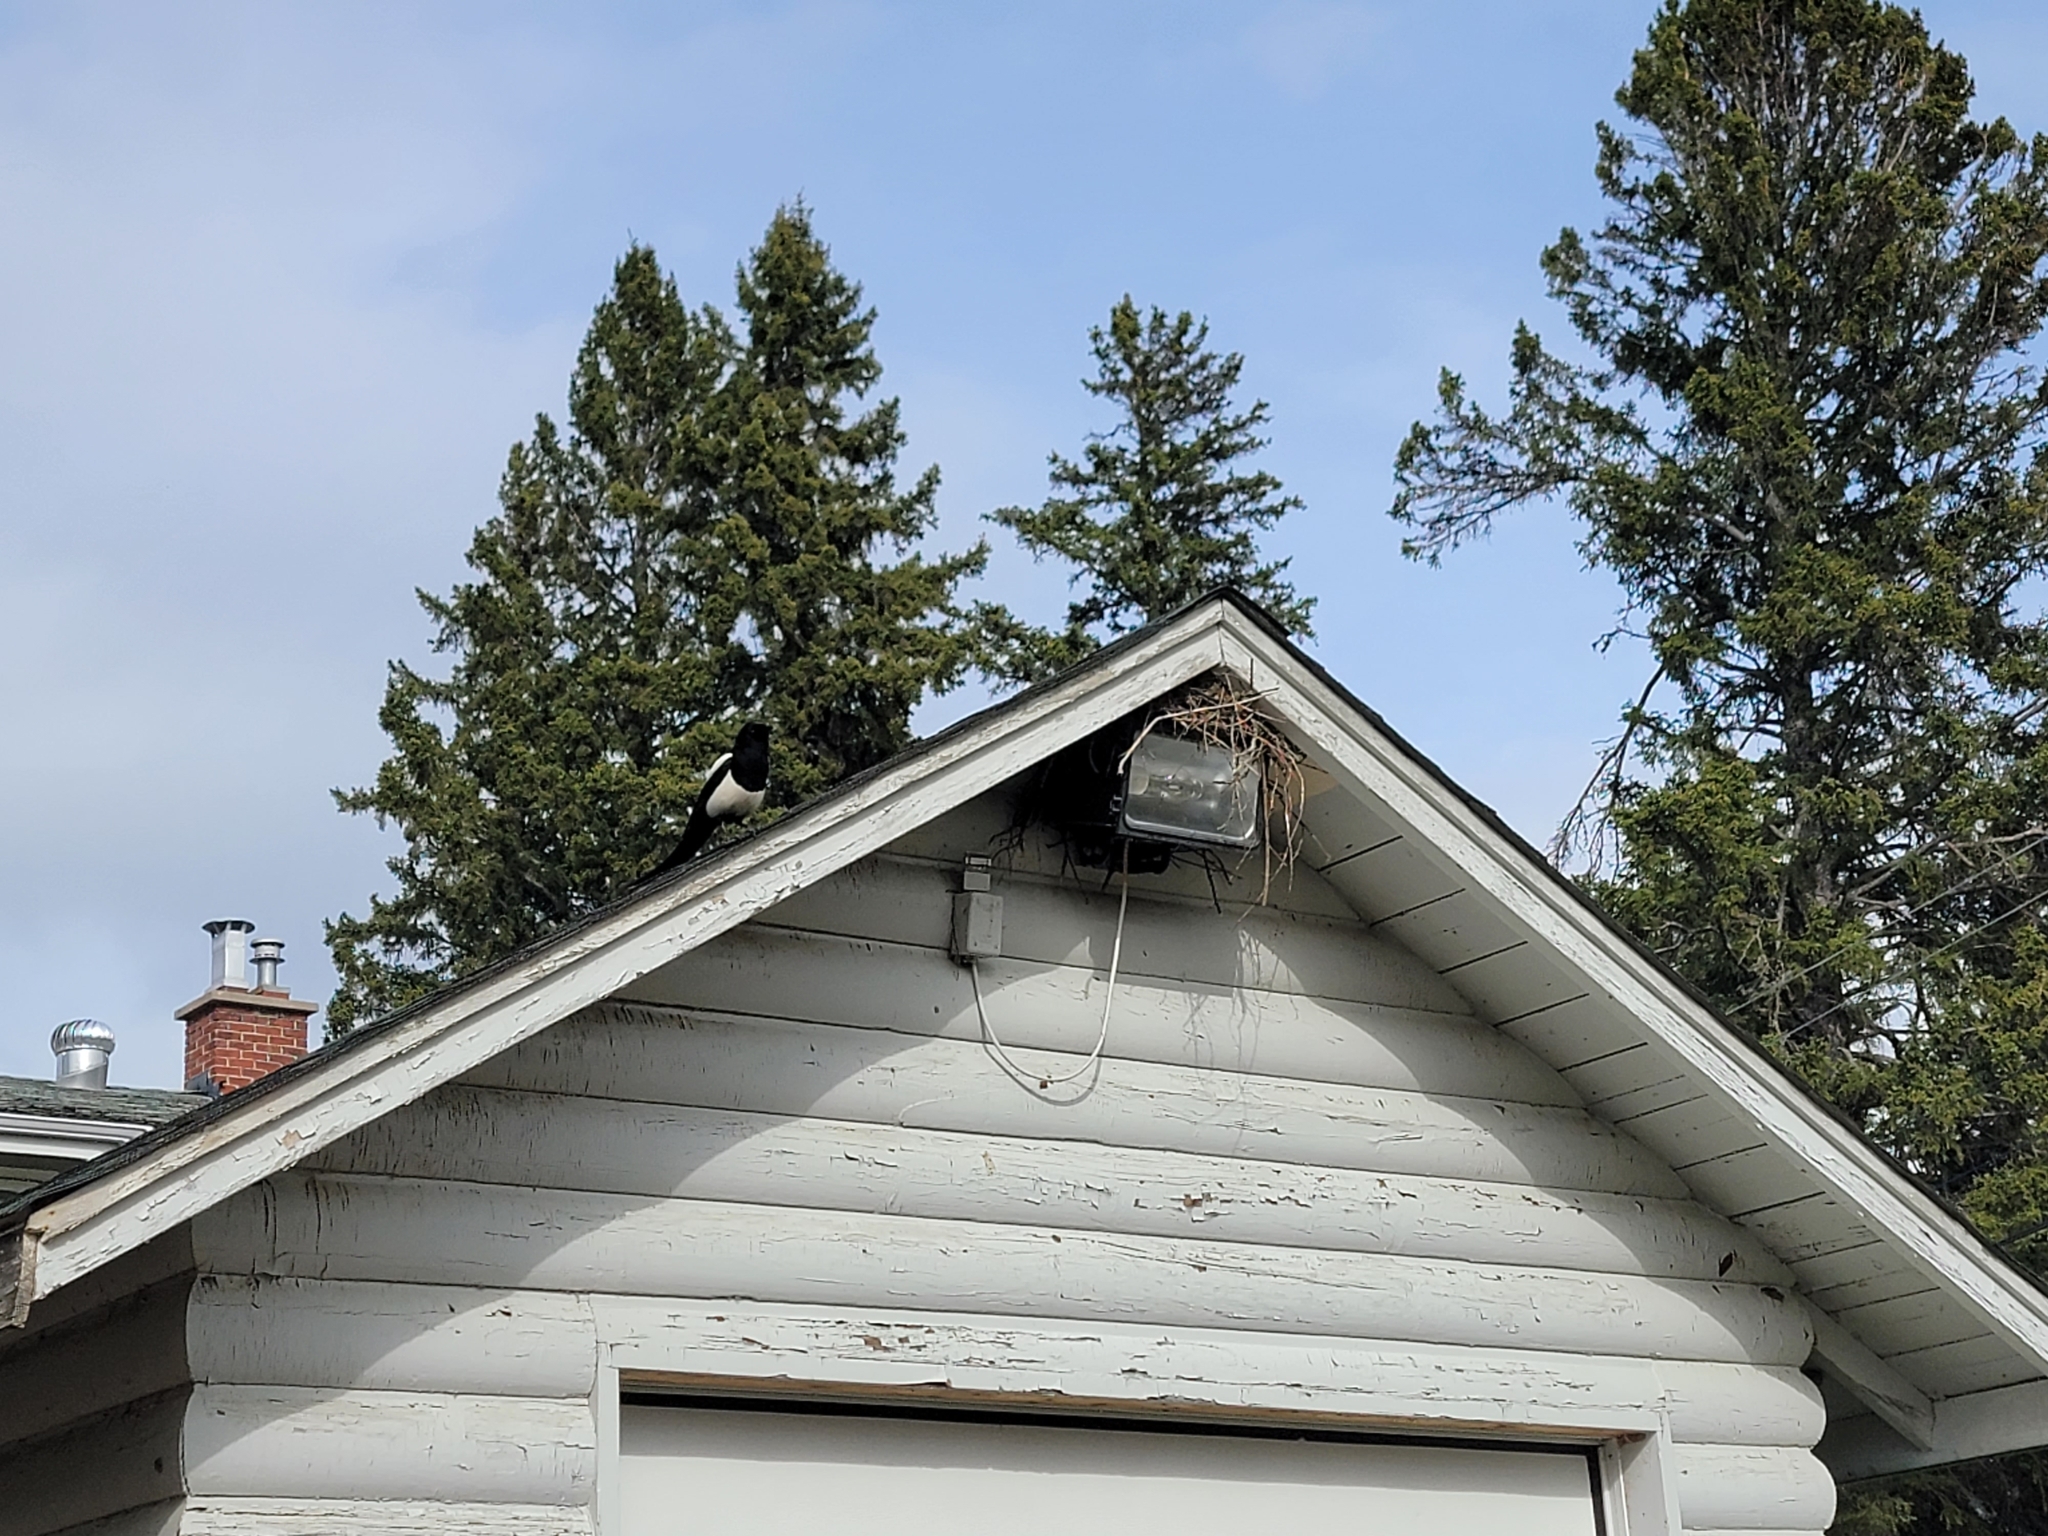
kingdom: Animalia
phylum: Chordata
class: Aves
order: Passeriformes
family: Corvidae
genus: Pica
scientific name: Pica hudsonia
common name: Black-billed magpie
